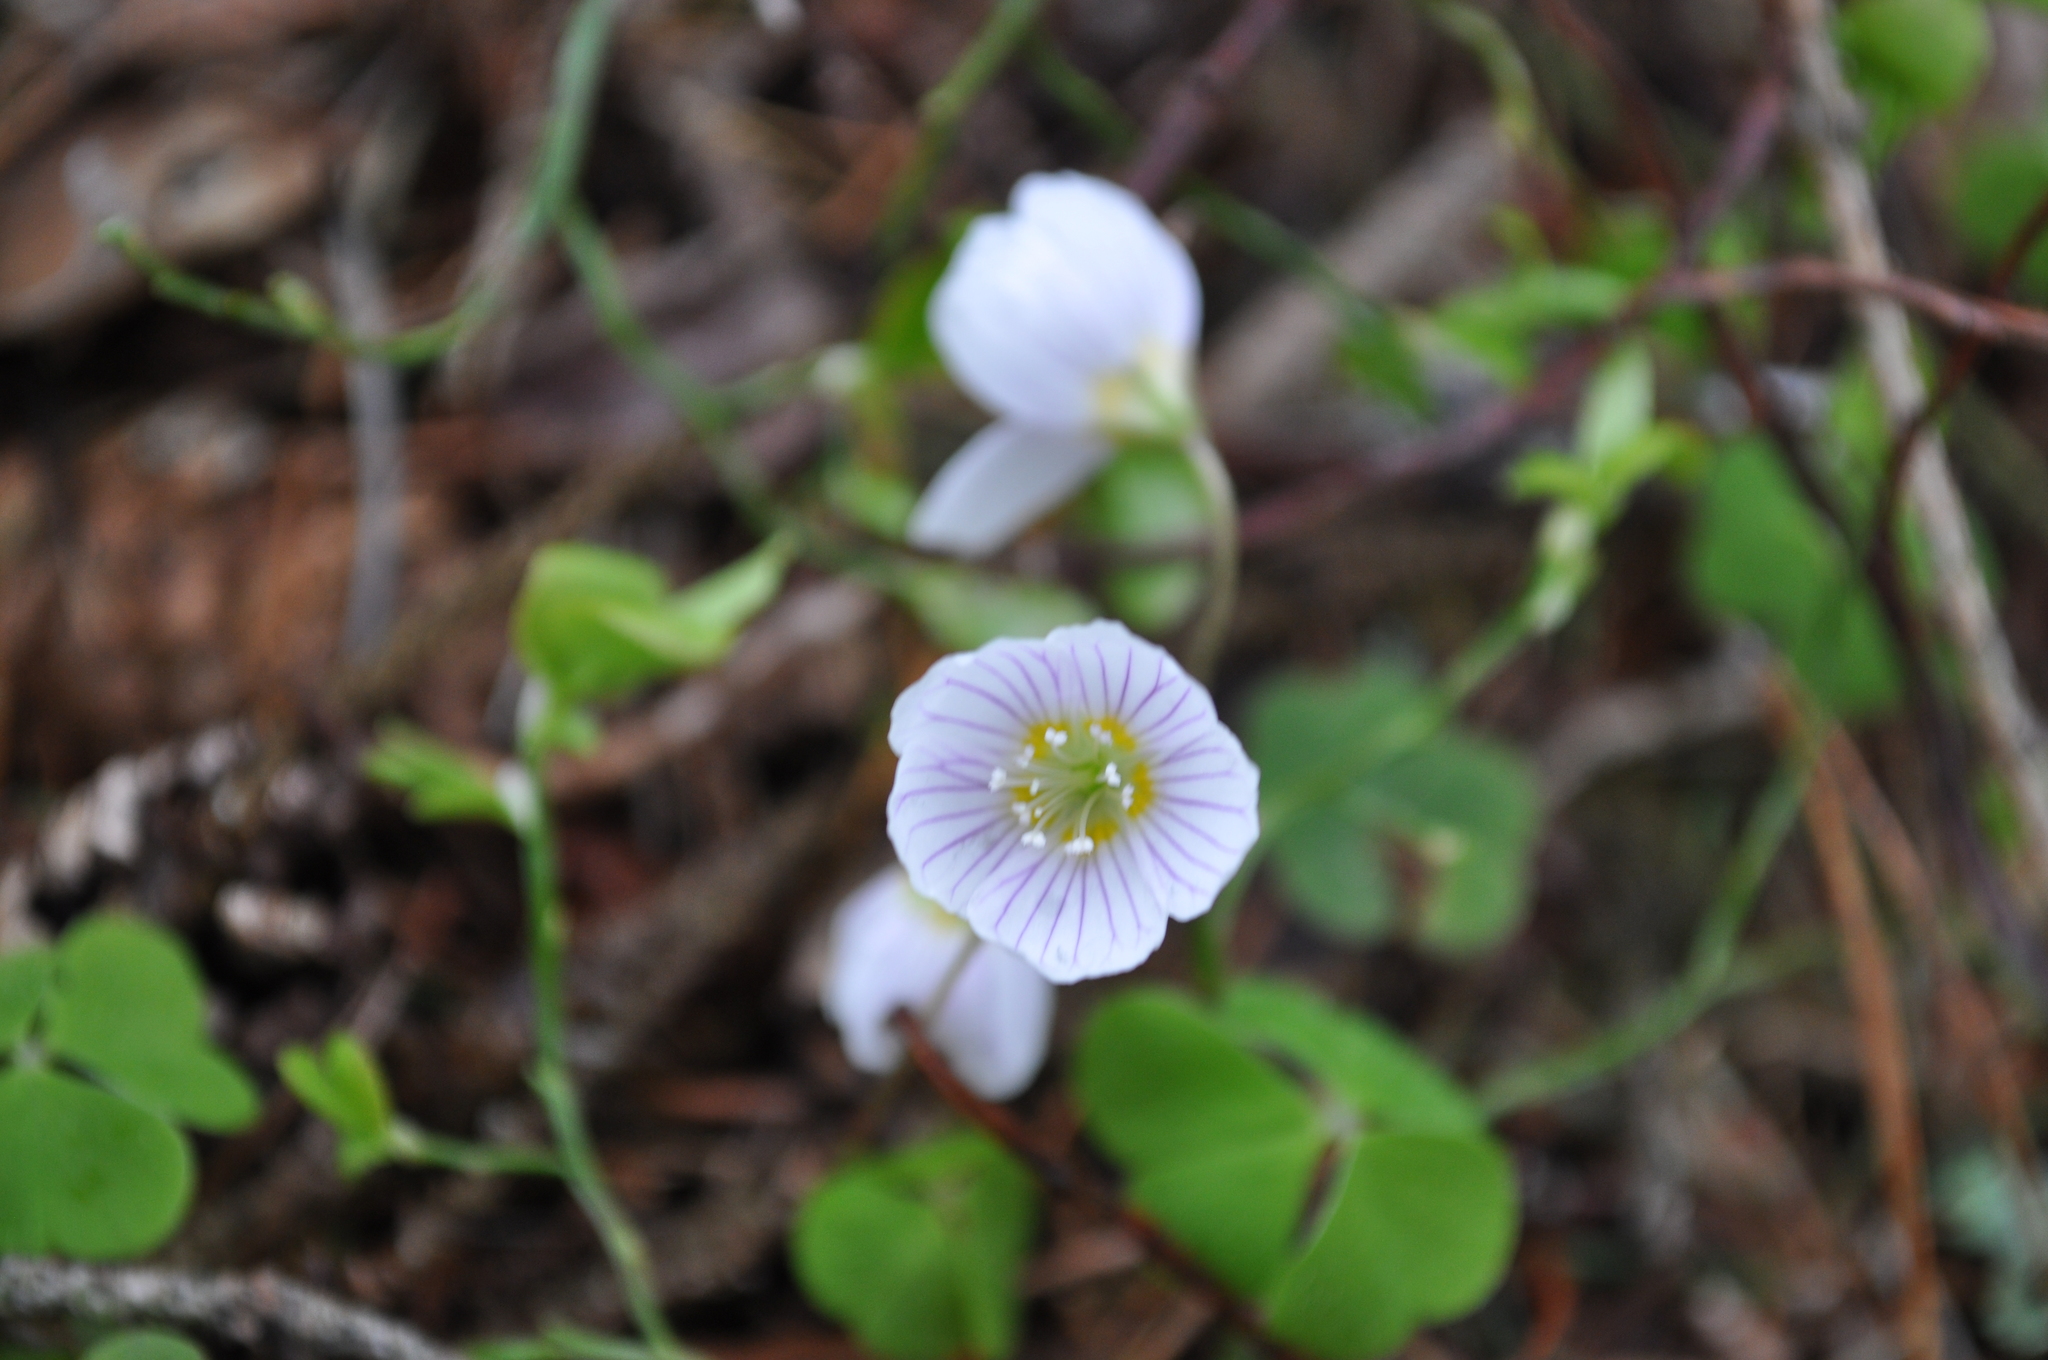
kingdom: Plantae
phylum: Tracheophyta
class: Magnoliopsida
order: Oxalidales
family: Oxalidaceae
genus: Oxalis
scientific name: Oxalis acetosella
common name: Wood-sorrel
